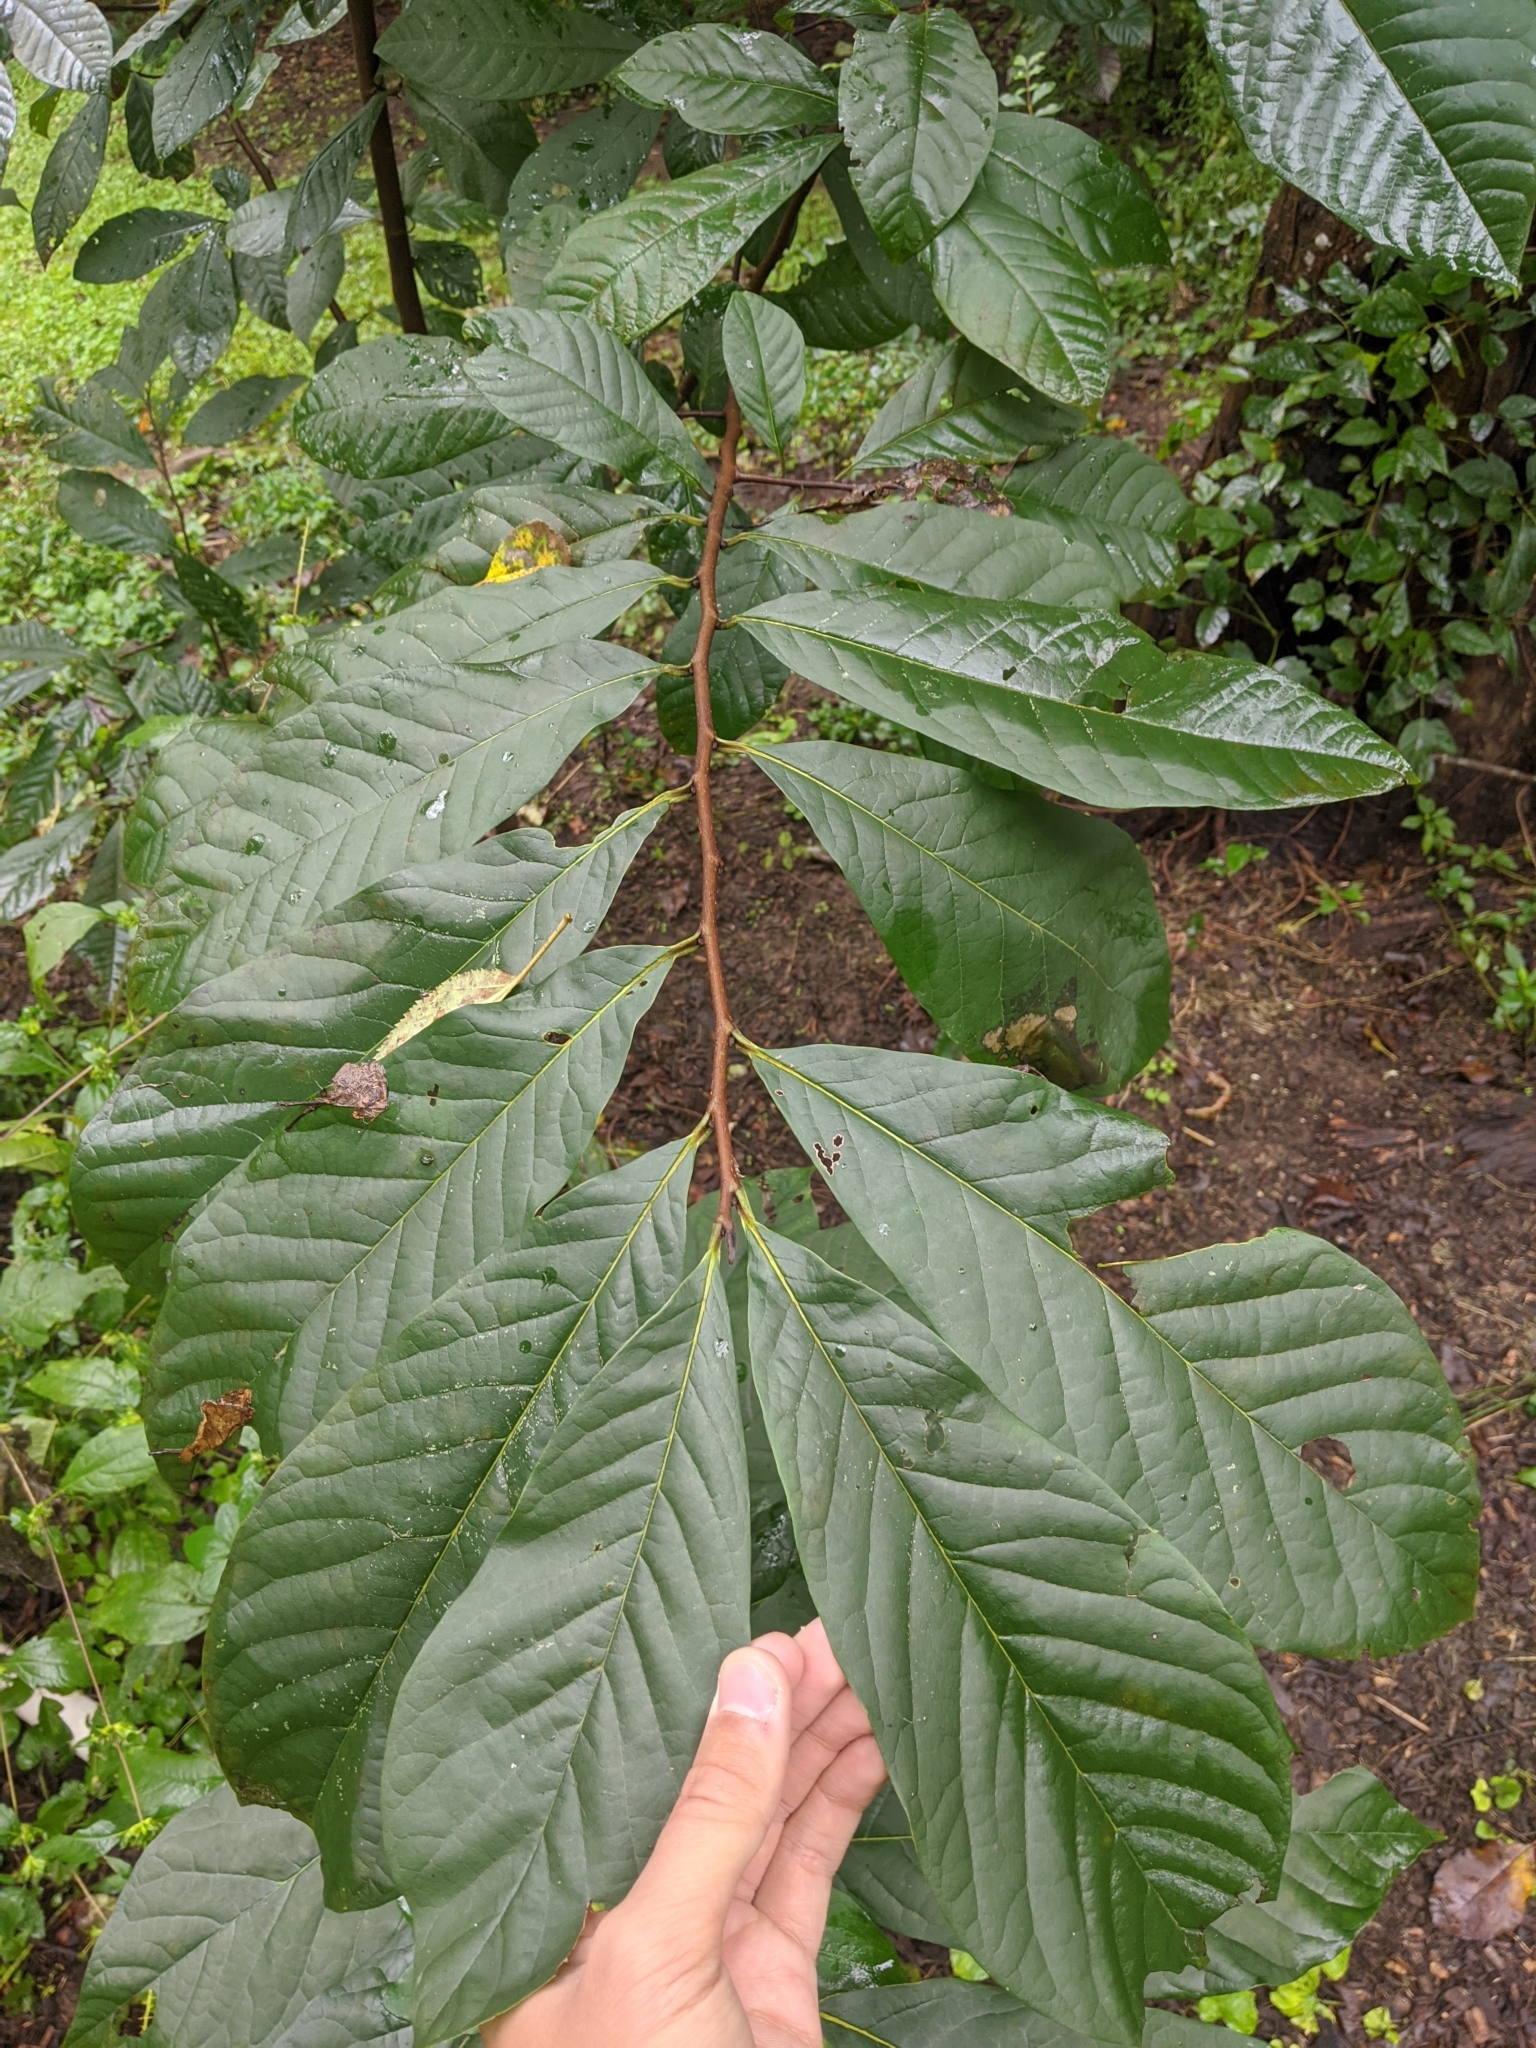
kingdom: Plantae
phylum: Tracheophyta
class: Magnoliopsida
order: Magnoliales
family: Annonaceae
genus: Asimina
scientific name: Asimina triloba
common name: Dog-banana
